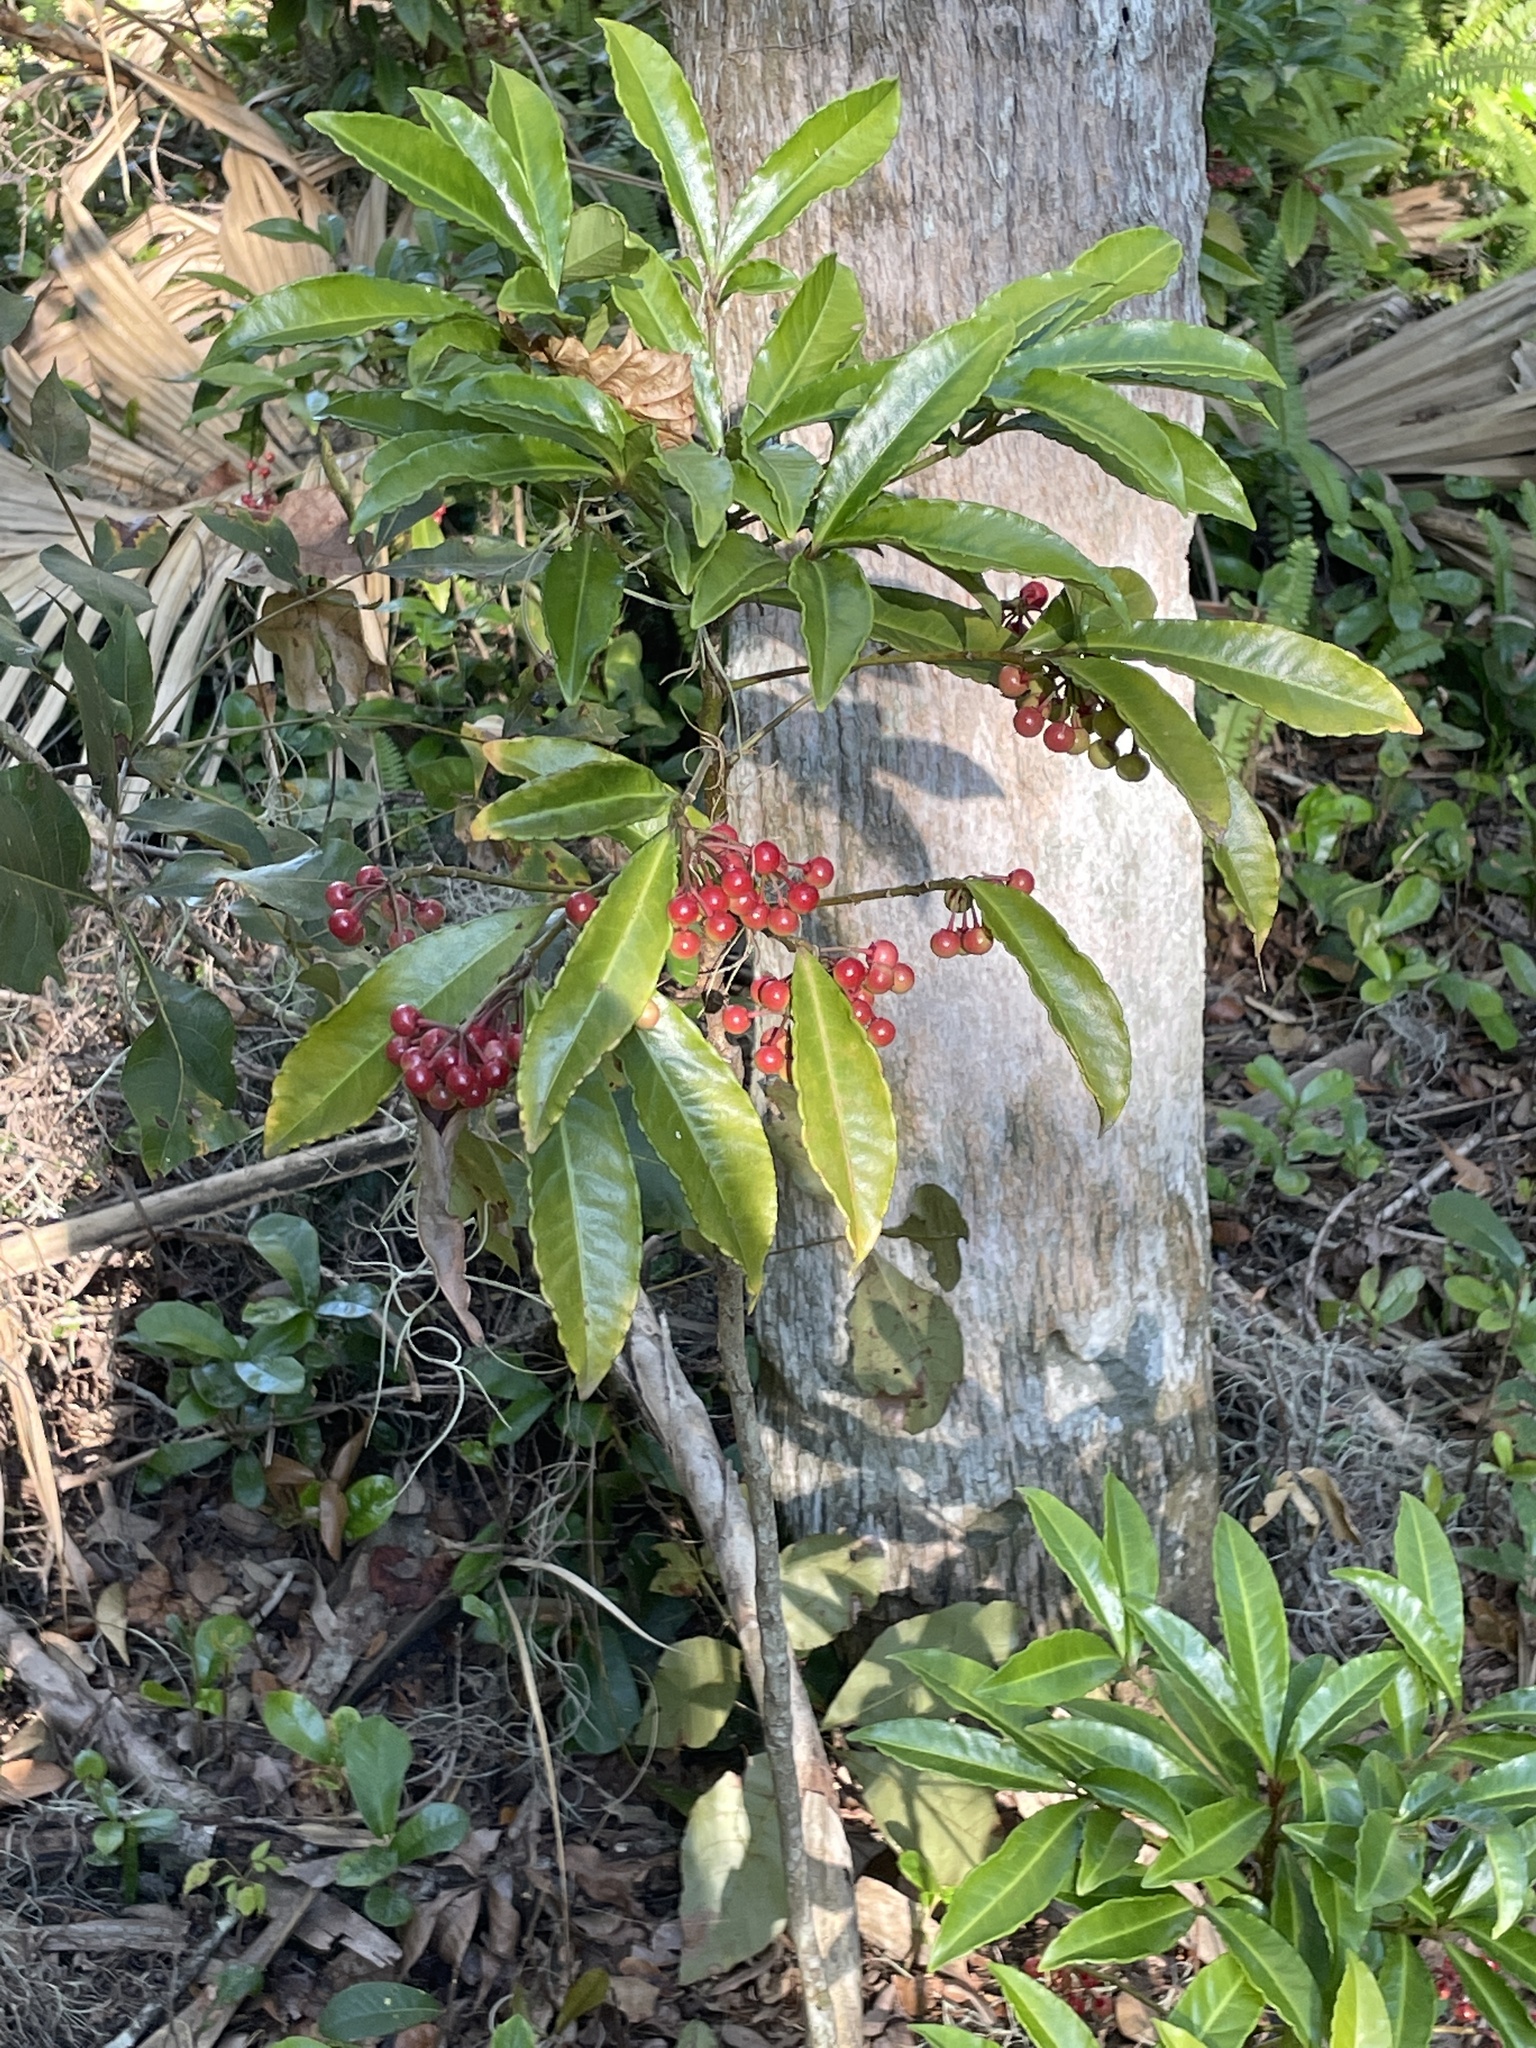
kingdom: Plantae
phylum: Tracheophyta
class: Magnoliopsida
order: Ericales
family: Primulaceae
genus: Ardisia
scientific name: Ardisia crenata
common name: Hen's eyes
